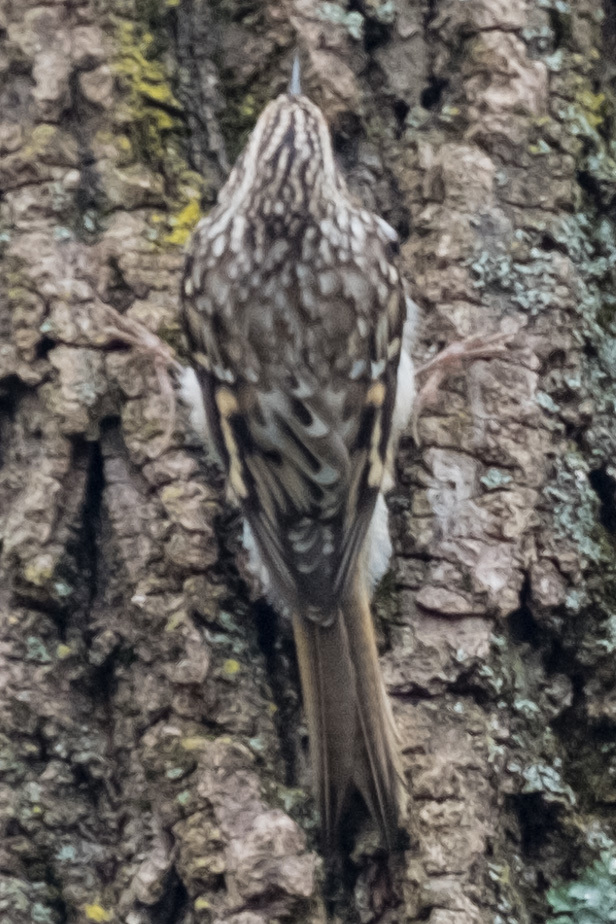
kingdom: Animalia
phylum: Chordata
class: Aves
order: Passeriformes
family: Certhiidae
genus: Certhia
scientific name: Certhia americana
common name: Brown creeper
